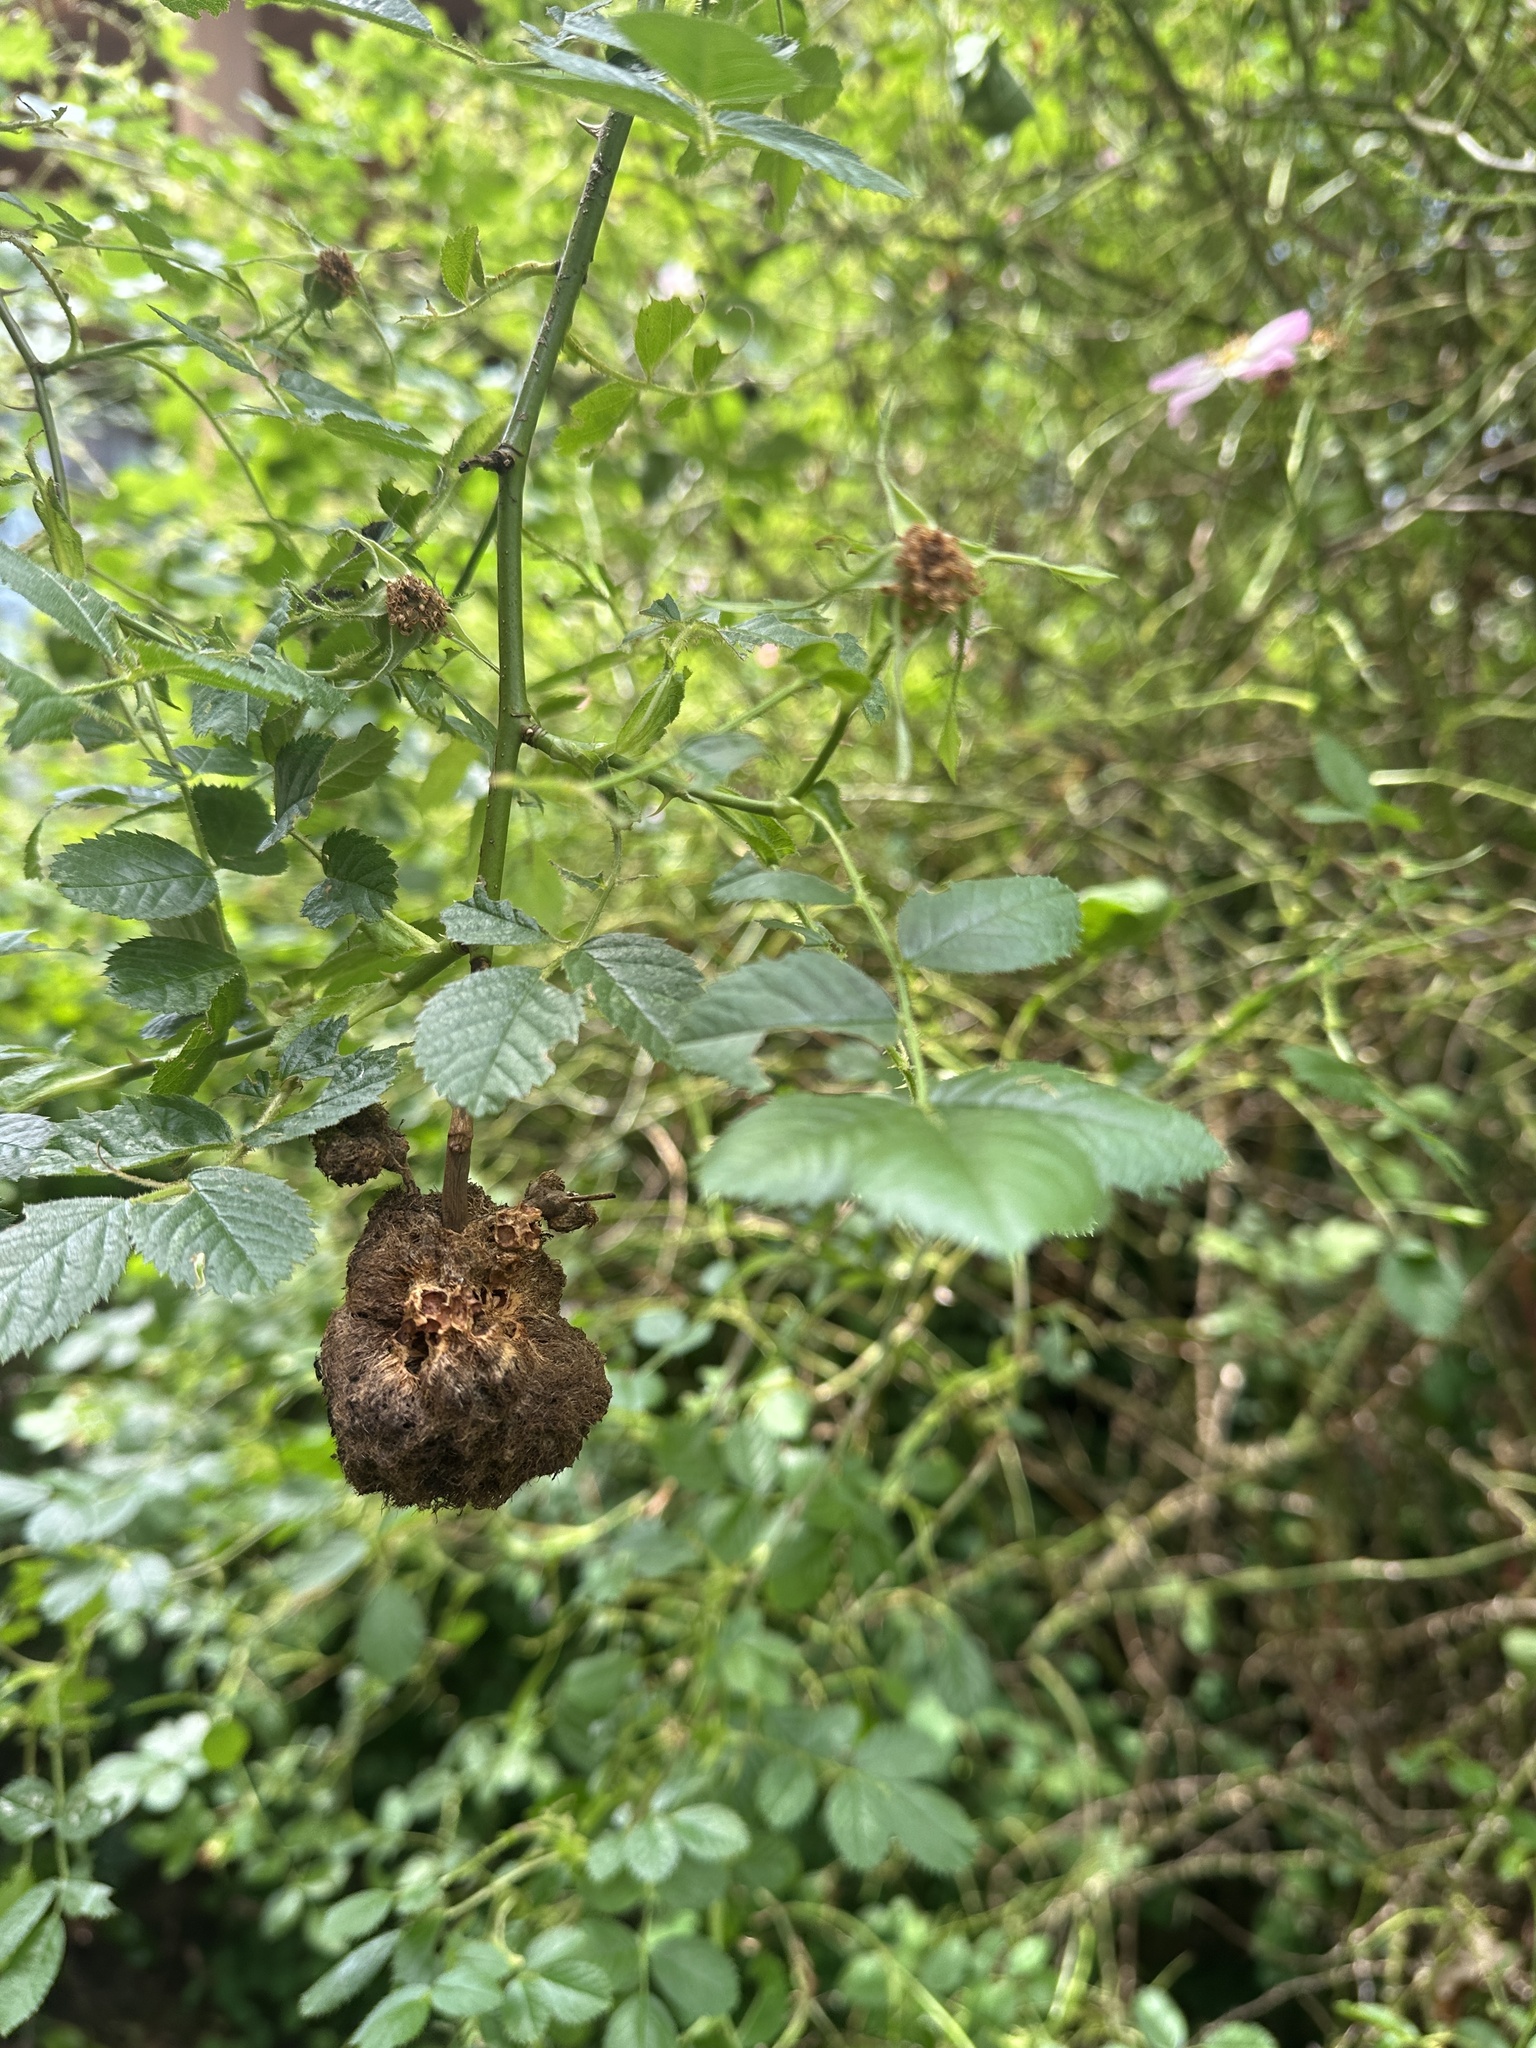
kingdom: Animalia
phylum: Arthropoda
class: Insecta
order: Hymenoptera
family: Cynipidae
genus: Diplolepis
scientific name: Diplolepis rosae
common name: Bedeguar gall
